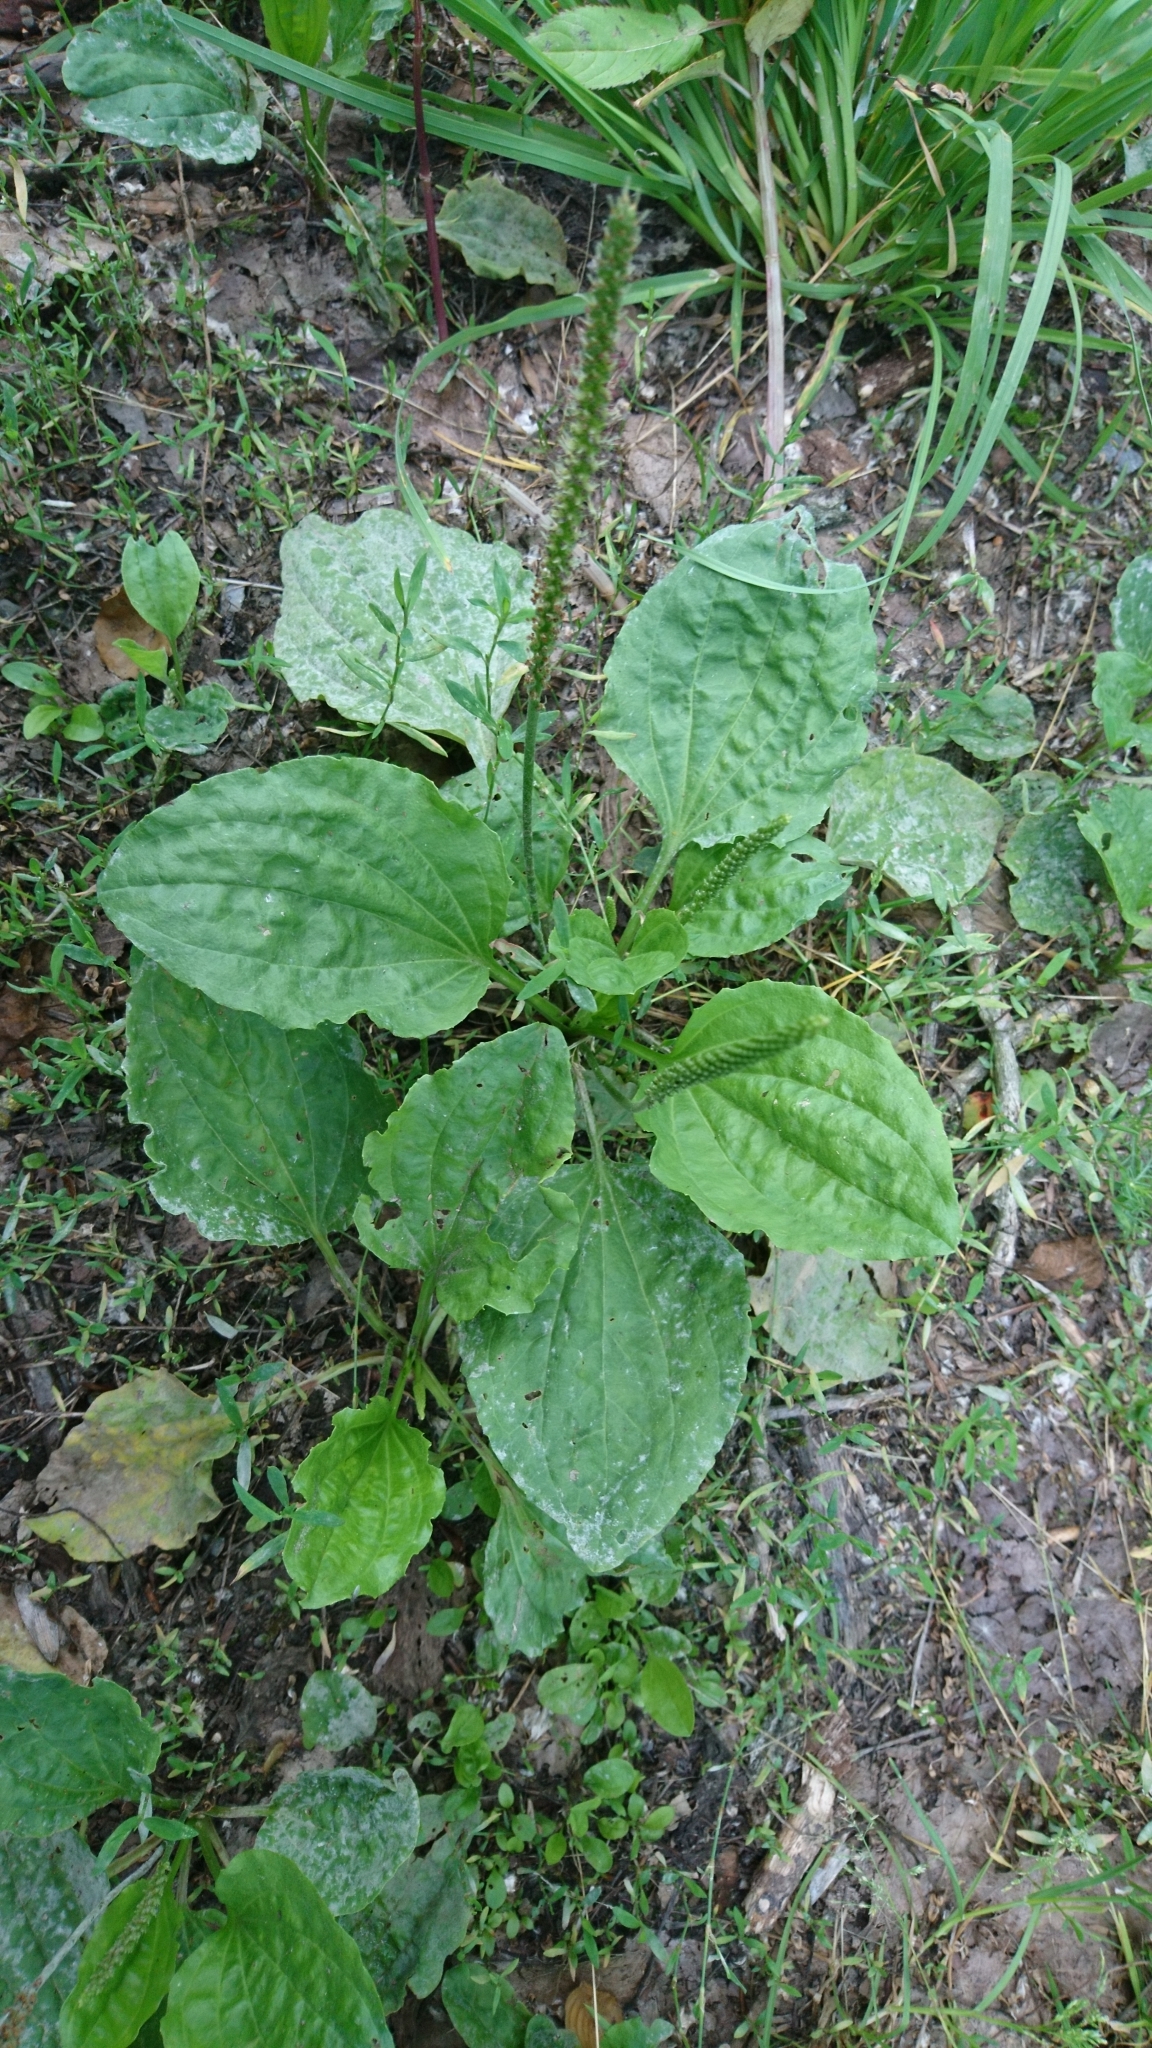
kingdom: Plantae
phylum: Tracheophyta
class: Magnoliopsida
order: Lamiales
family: Plantaginaceae
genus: Plantago
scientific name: Plantago major
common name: Common plantain
